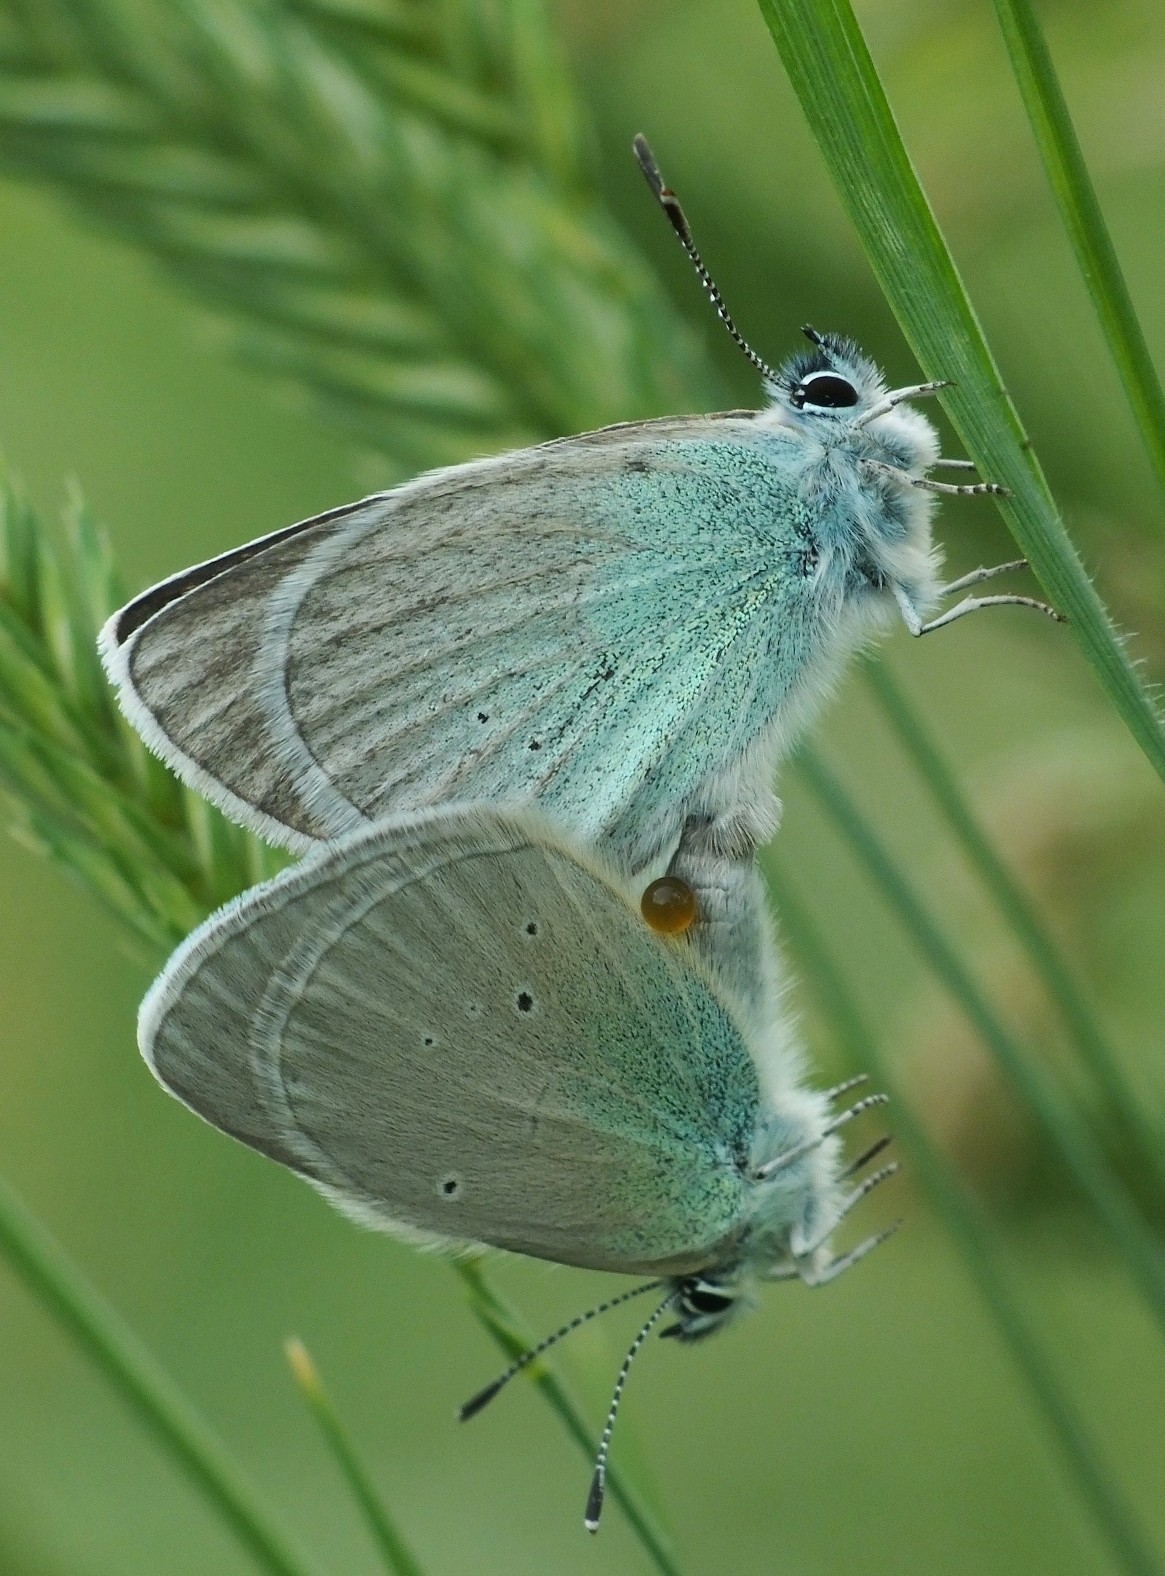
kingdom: Animalia
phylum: Arthropoda
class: Insecta
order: Lepidoptera
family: Lycaenidae
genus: Glaucopsyche
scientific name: Glaucopsyche alexis
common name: Green-underside blue
